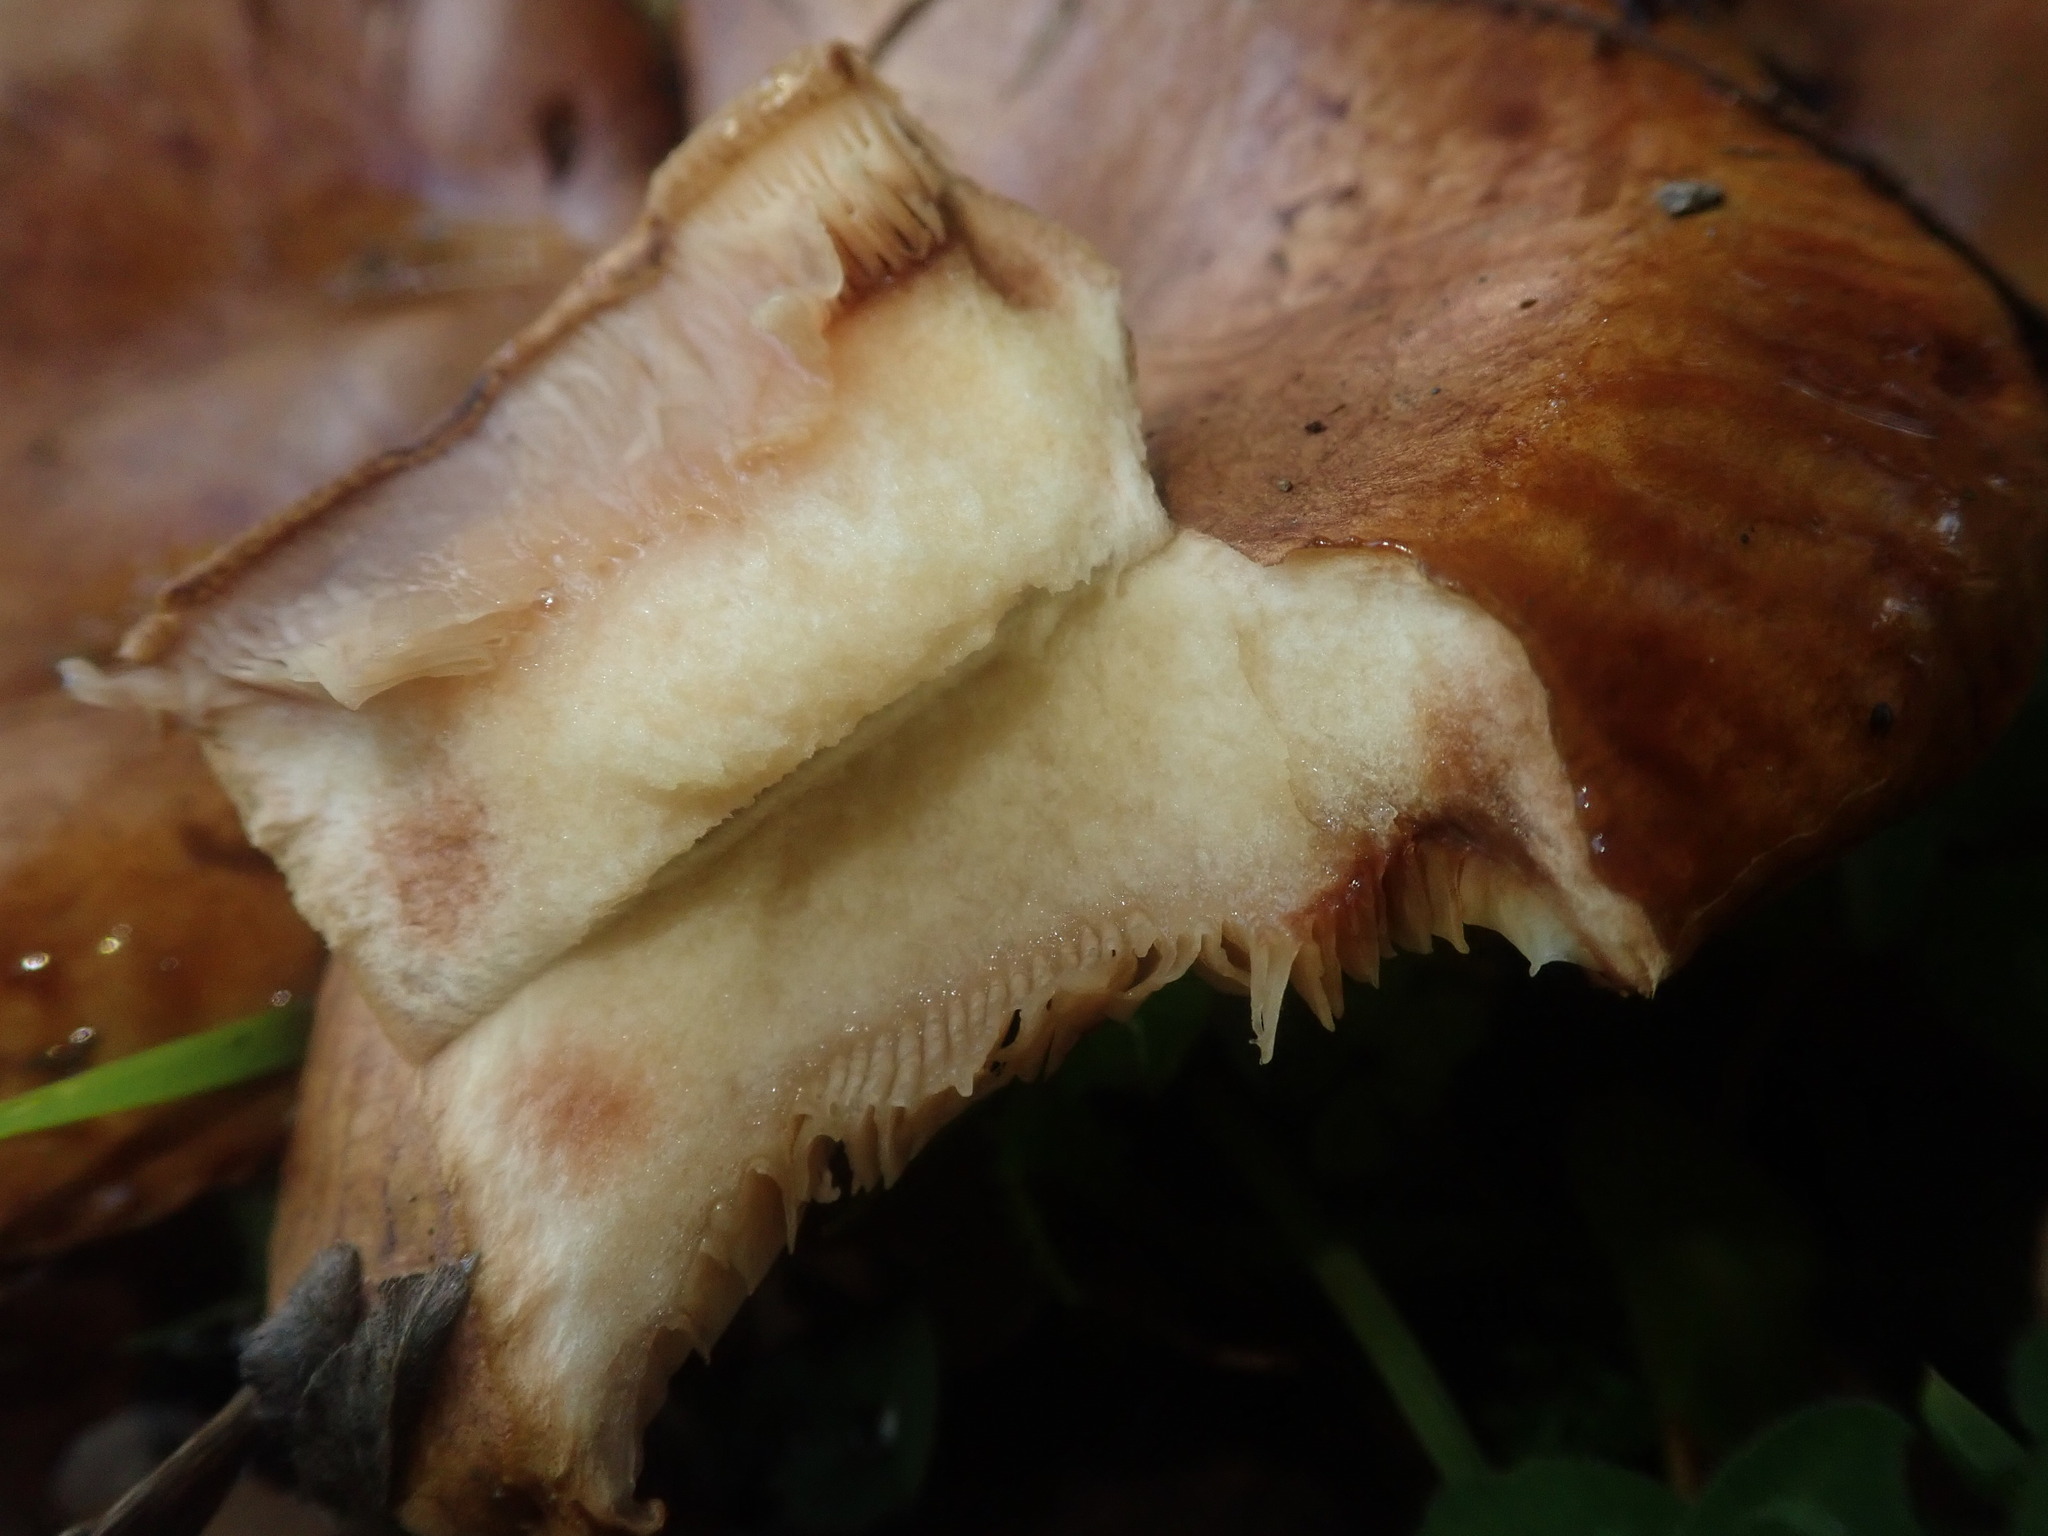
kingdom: Fungi
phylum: Basidiomycota
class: Agaricomycetes
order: Boletales
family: Paxillaceae
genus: Paxillus
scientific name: Paxillus involutus
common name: Brown roll rim
